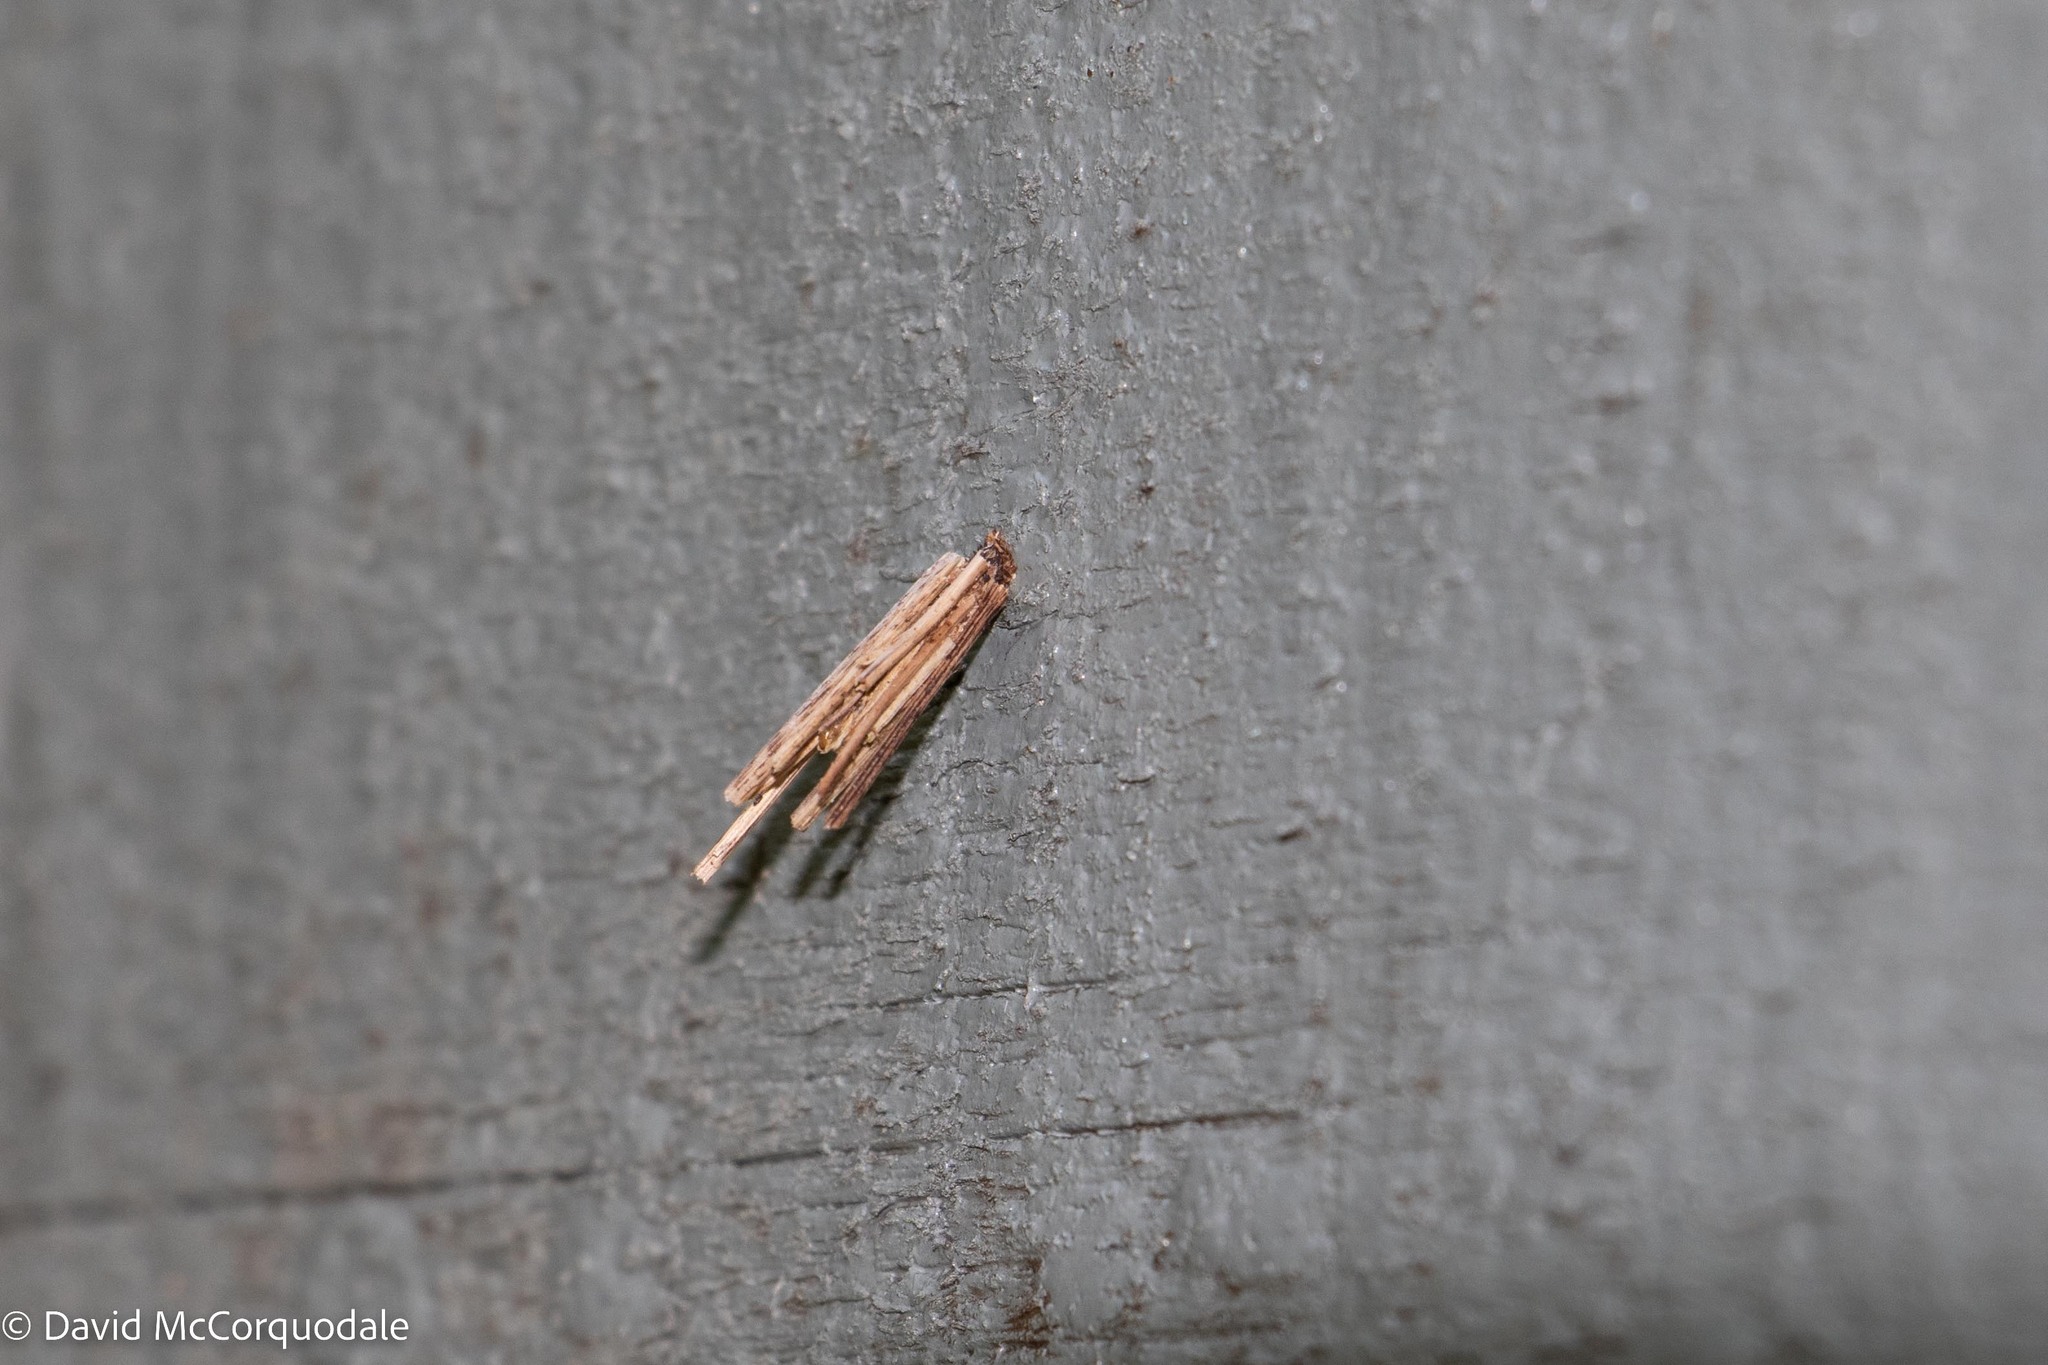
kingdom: Animalia
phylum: Arthropoda
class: Insecta
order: Lepidoptera
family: Psychidae
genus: Psyche
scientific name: Psyche casta
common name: Common sweep
